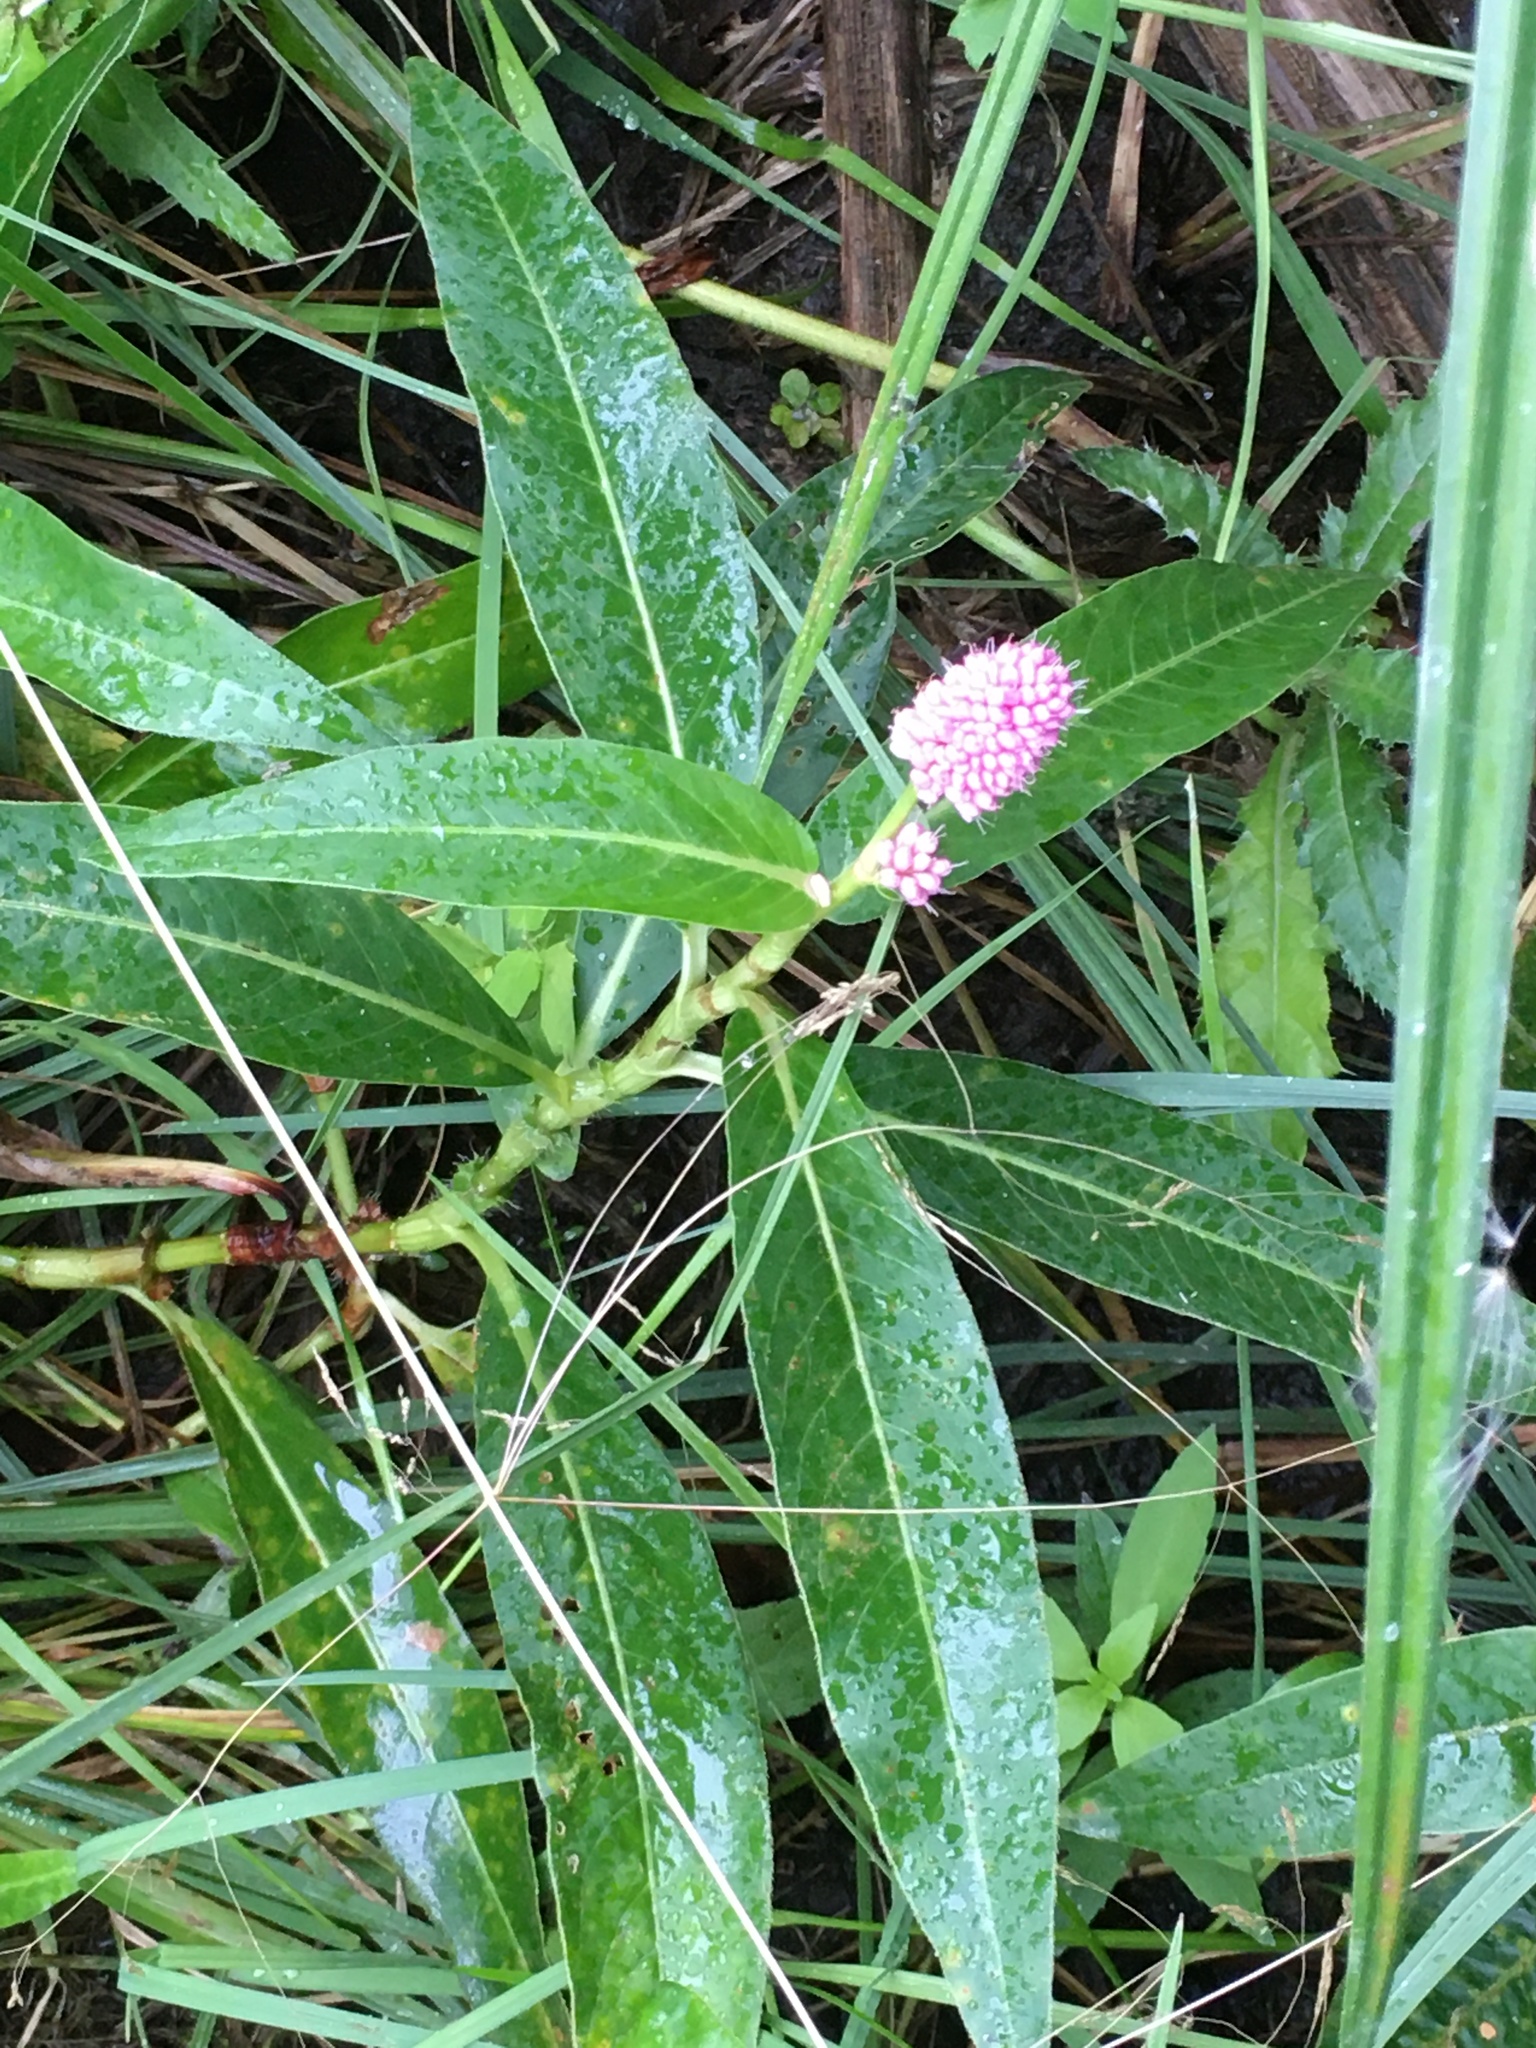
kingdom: Plantae
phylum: Tracheophyta
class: Magnoliopsida
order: Caryophyllales
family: Polygonaceae
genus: Persicaria
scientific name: Persicaria amphibia
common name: Amphibious bistort
